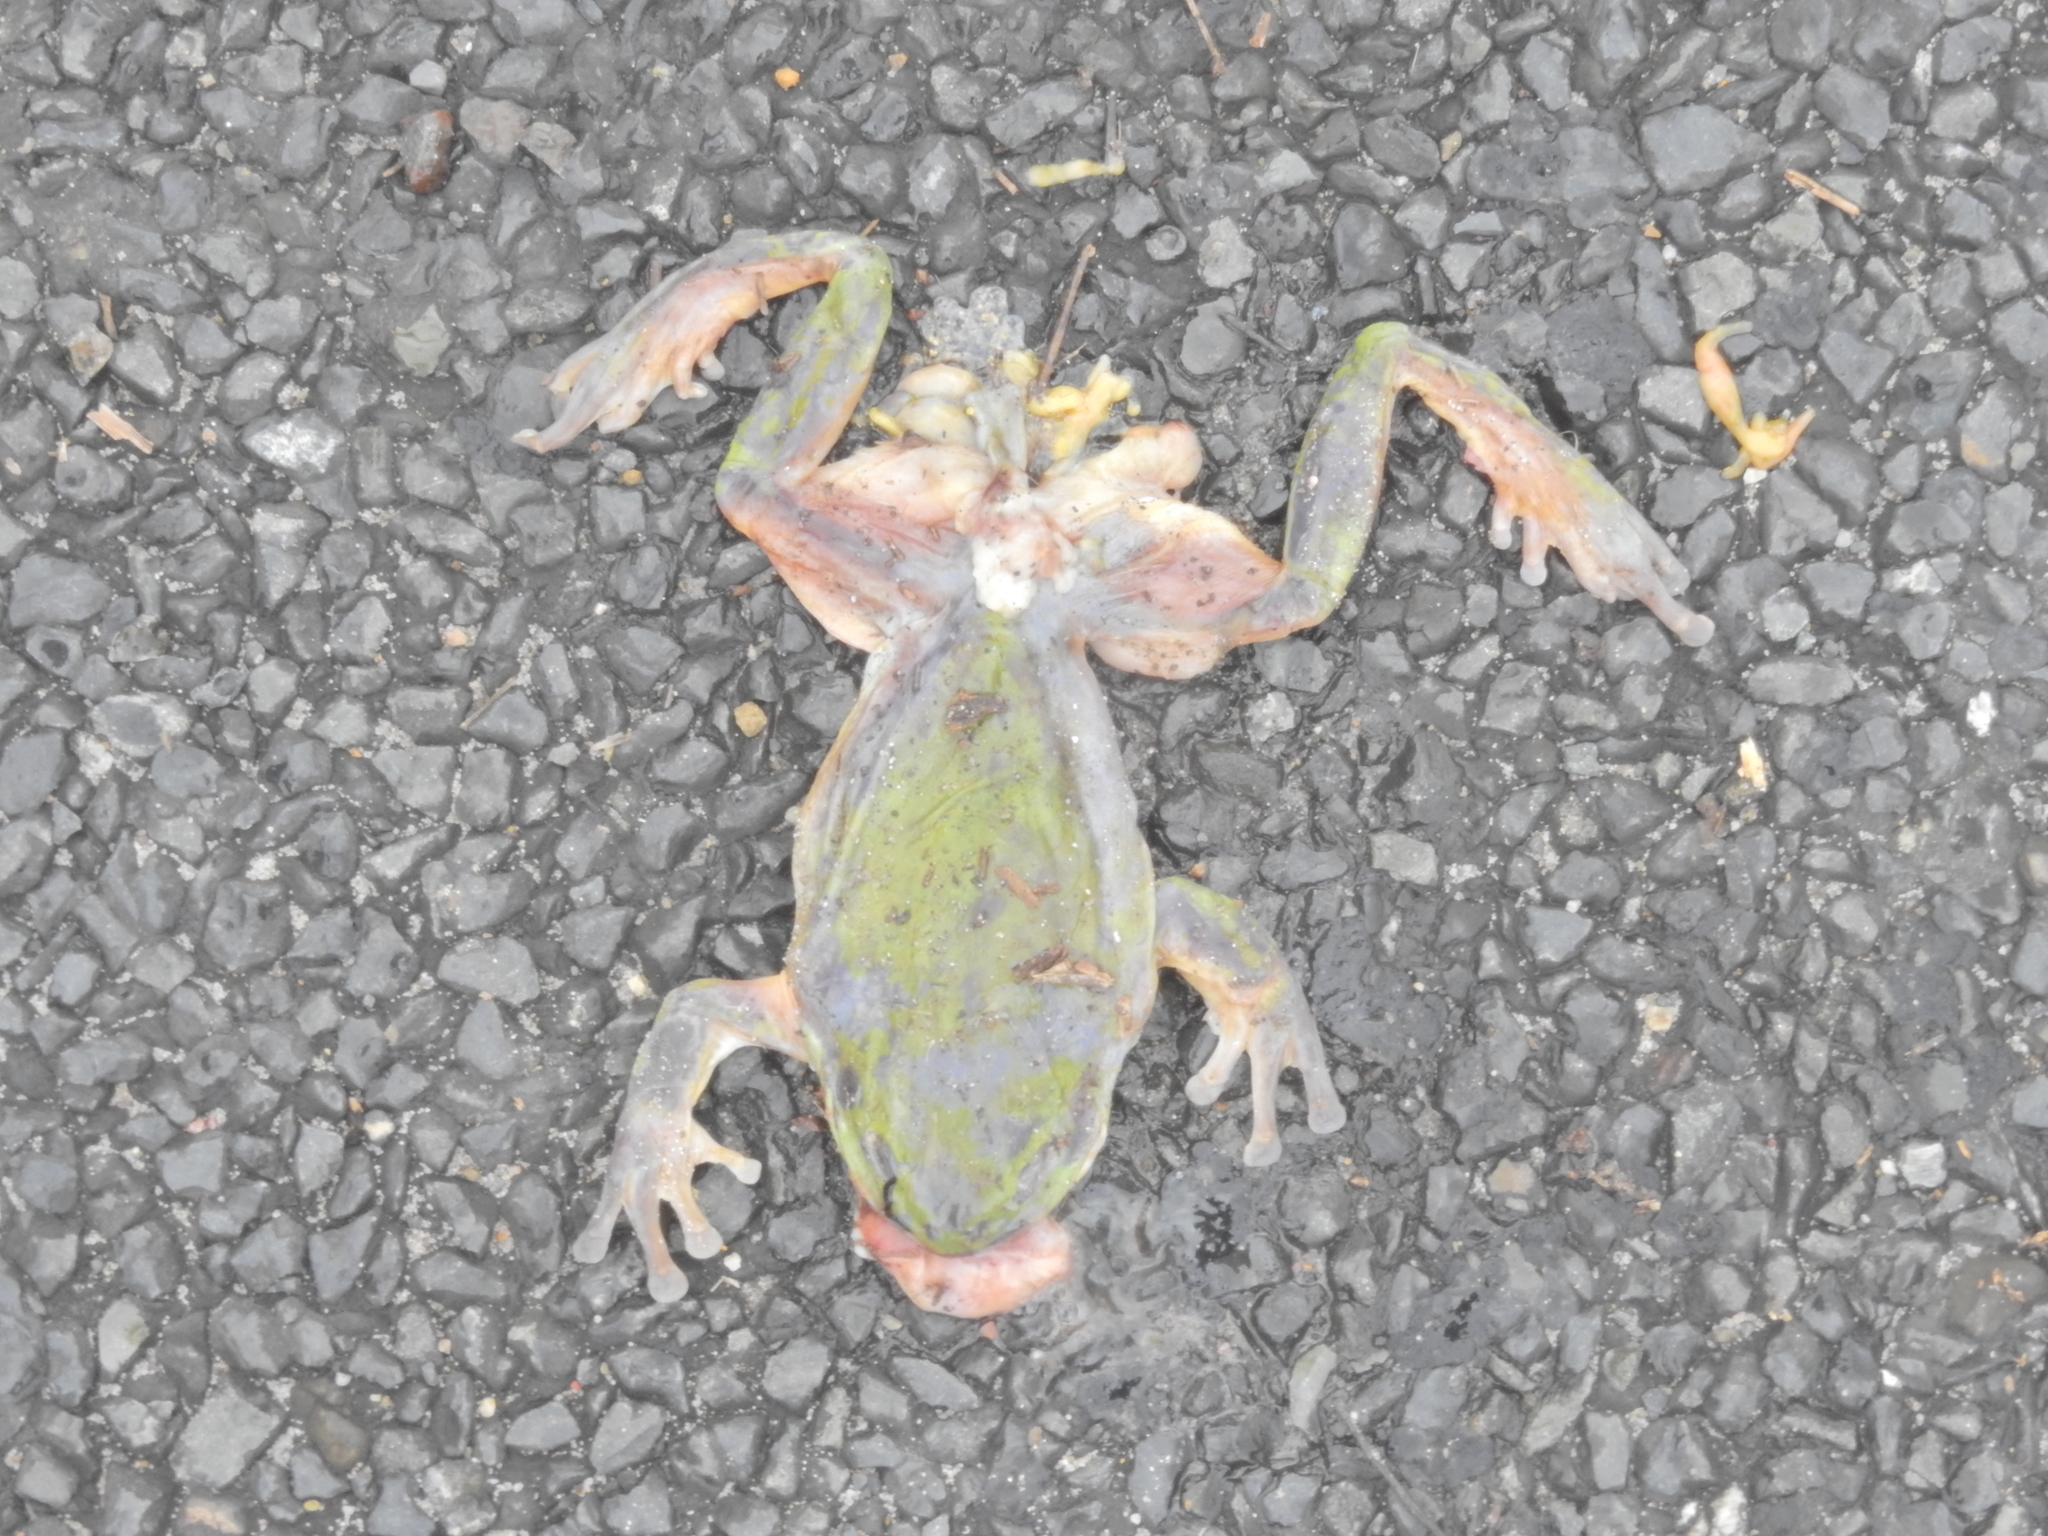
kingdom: Animalia
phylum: Chordata
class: Amphibia
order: Anura
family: Pelodryadidae
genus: Ranoidea
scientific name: Ranoidea caerulea
